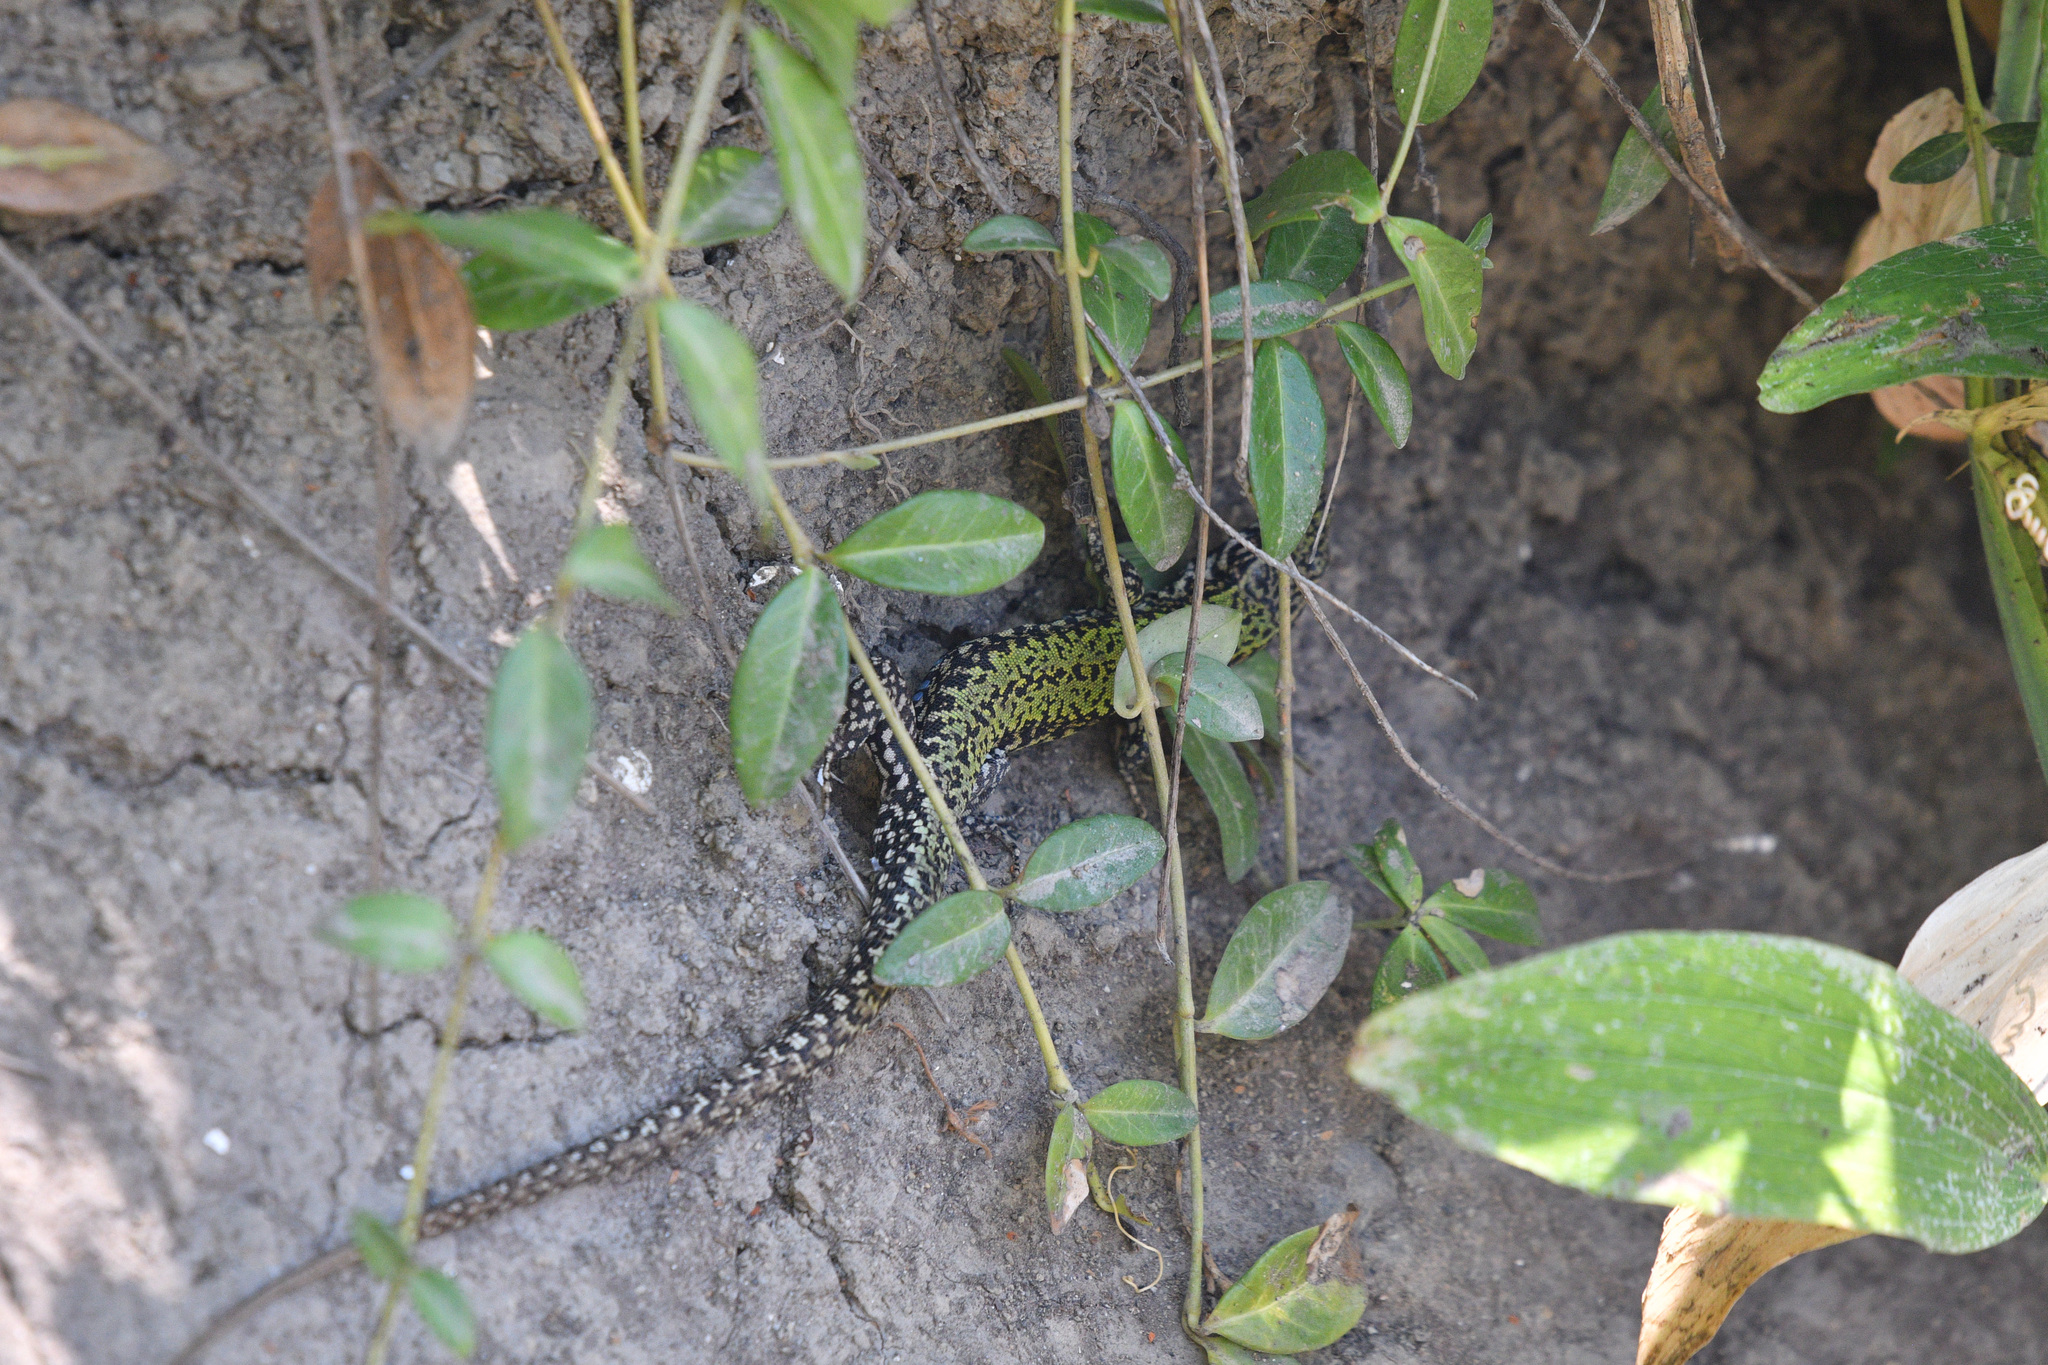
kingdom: Animalia
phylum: Chordata
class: Squamata
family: Lacertidae
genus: Podarcis
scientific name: Podarcis muralis
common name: Common wall lizard
